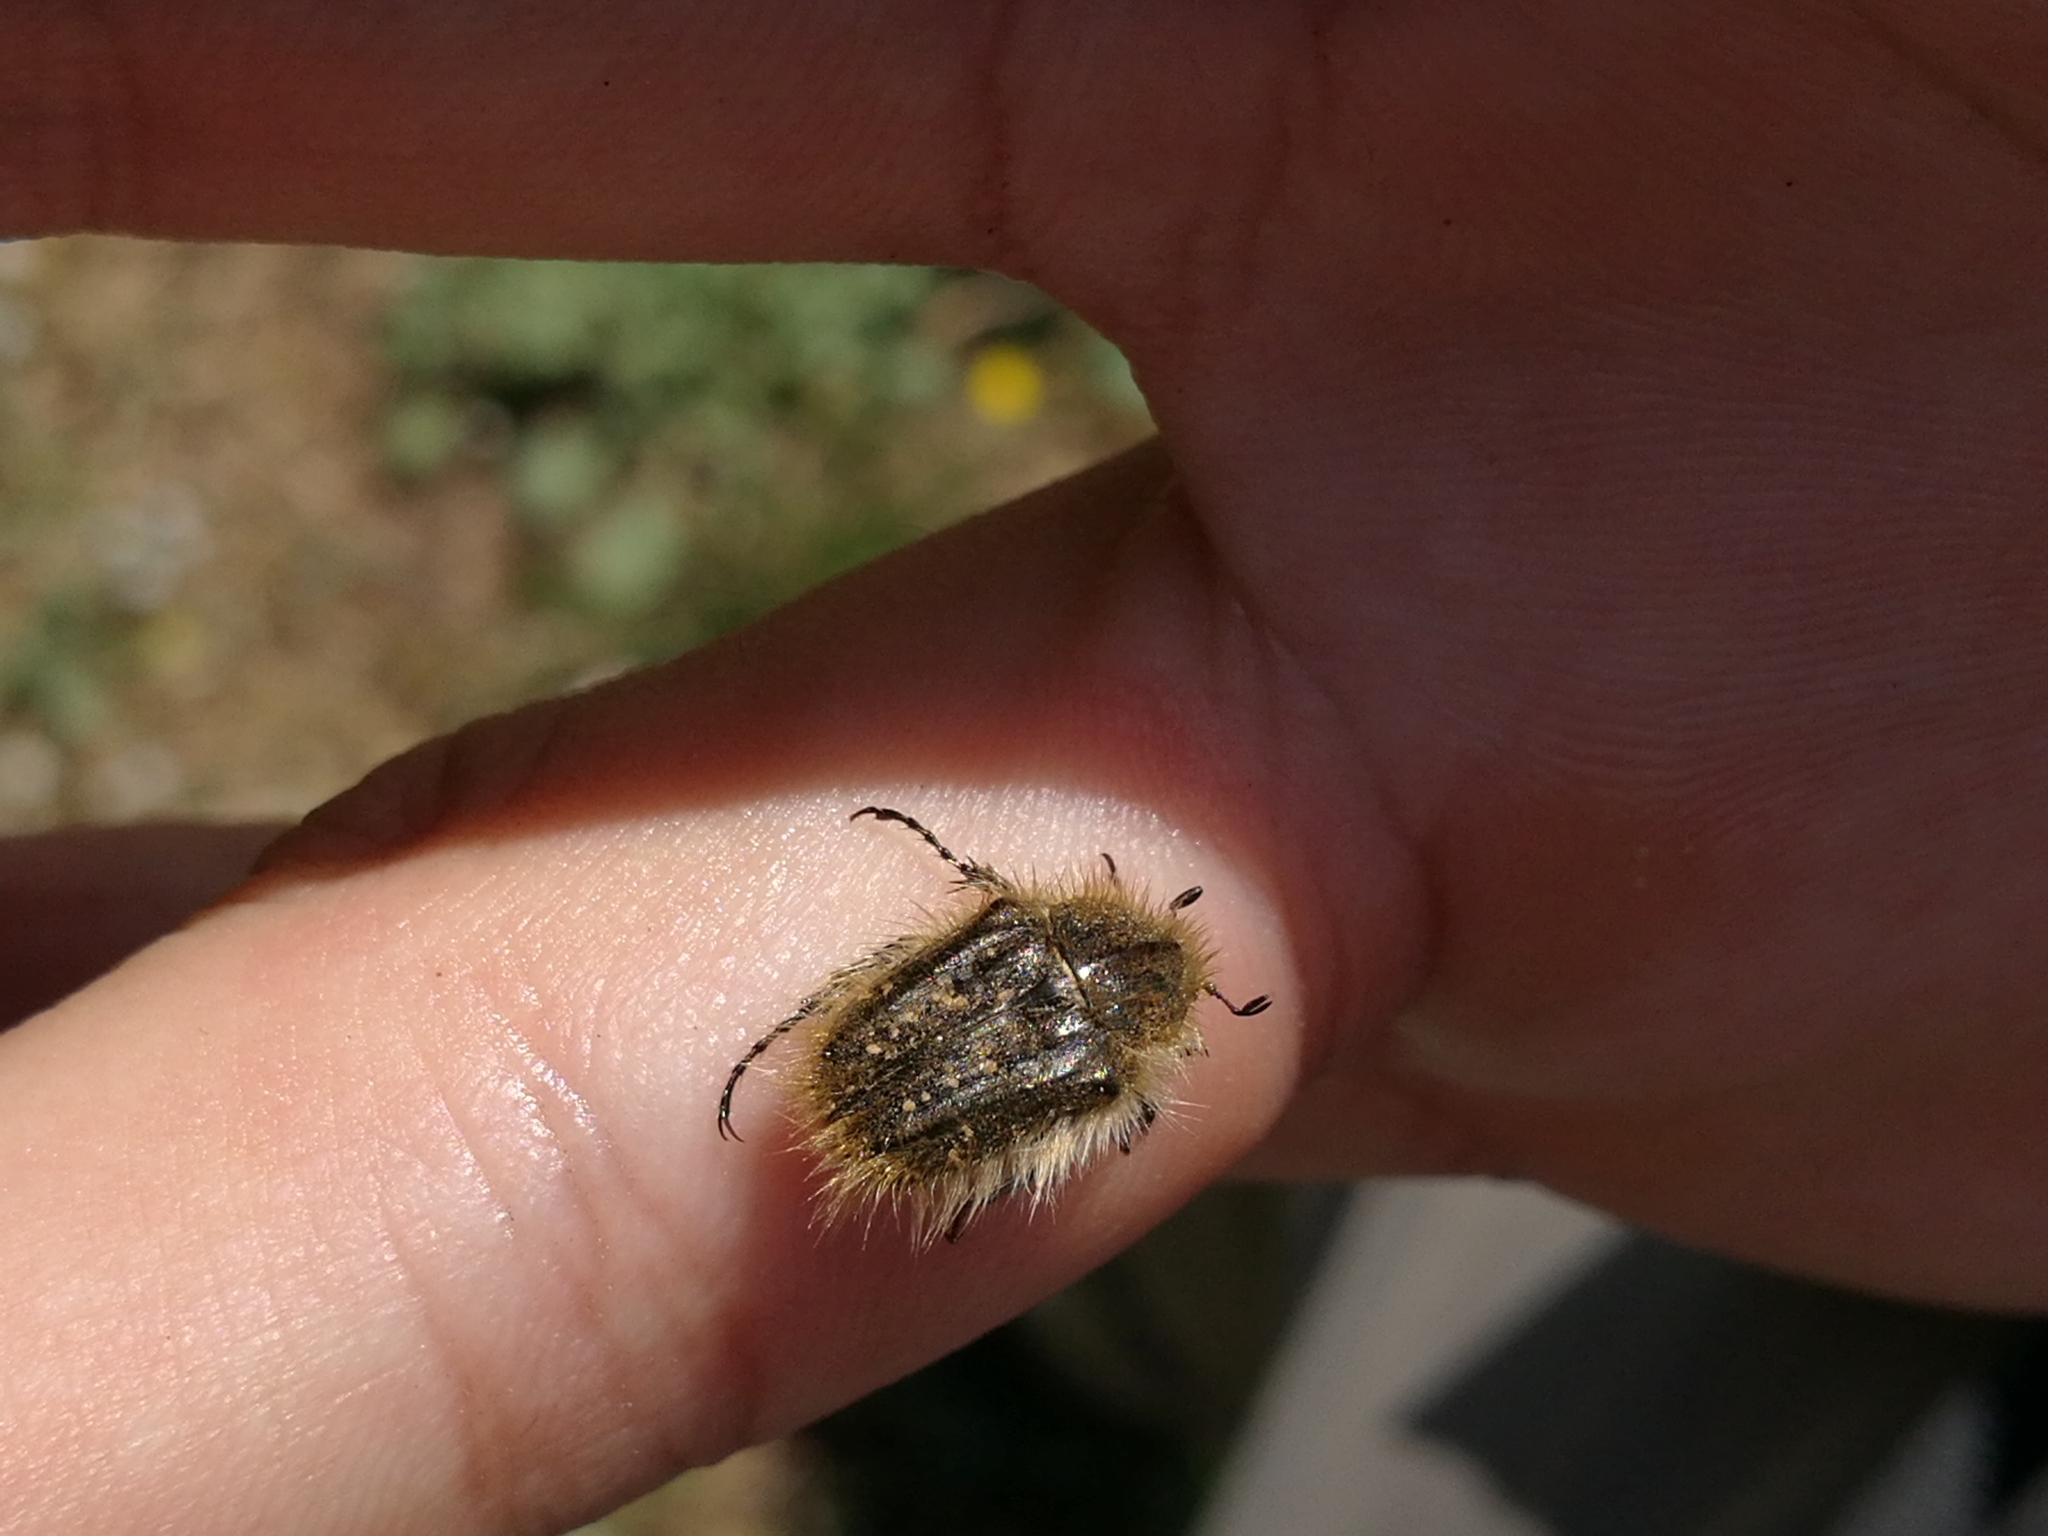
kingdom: Animalia
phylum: Arthropoda
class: Insecta
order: Coleoptera
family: Scarabaeidae
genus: Tropinota
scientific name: Tropinota squalida
